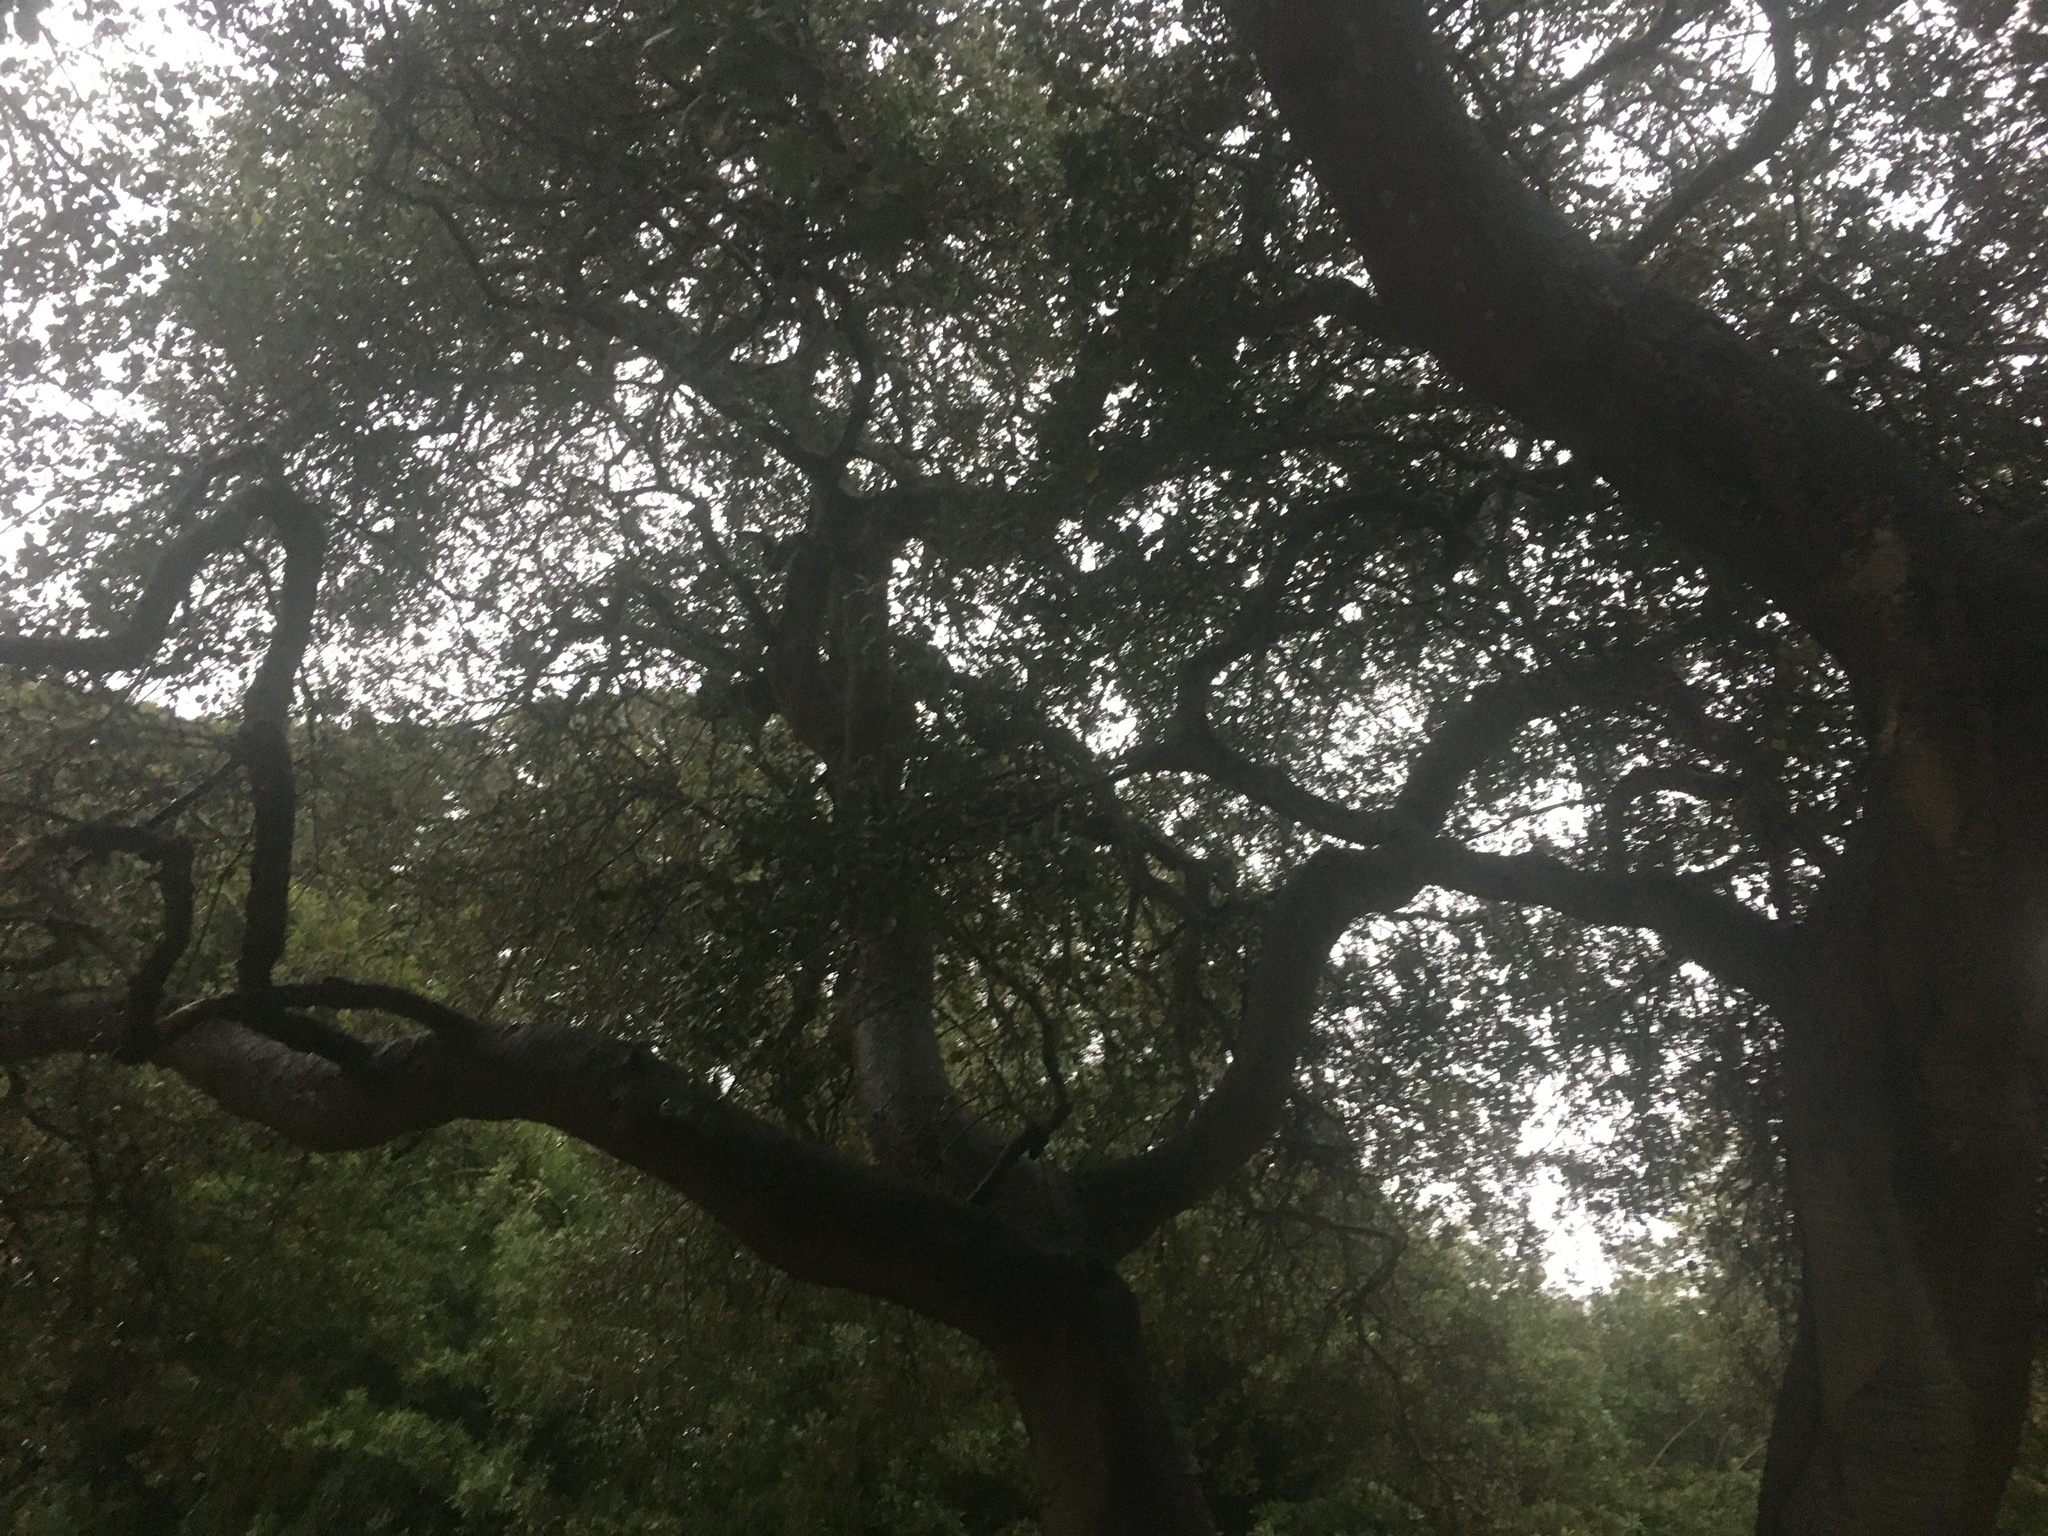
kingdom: Plantae
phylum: Tracheophyta
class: Magnoliopsida
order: Fagales
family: Fagaceae
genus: Quercus
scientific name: Quercus agrifolia
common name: California live oak
